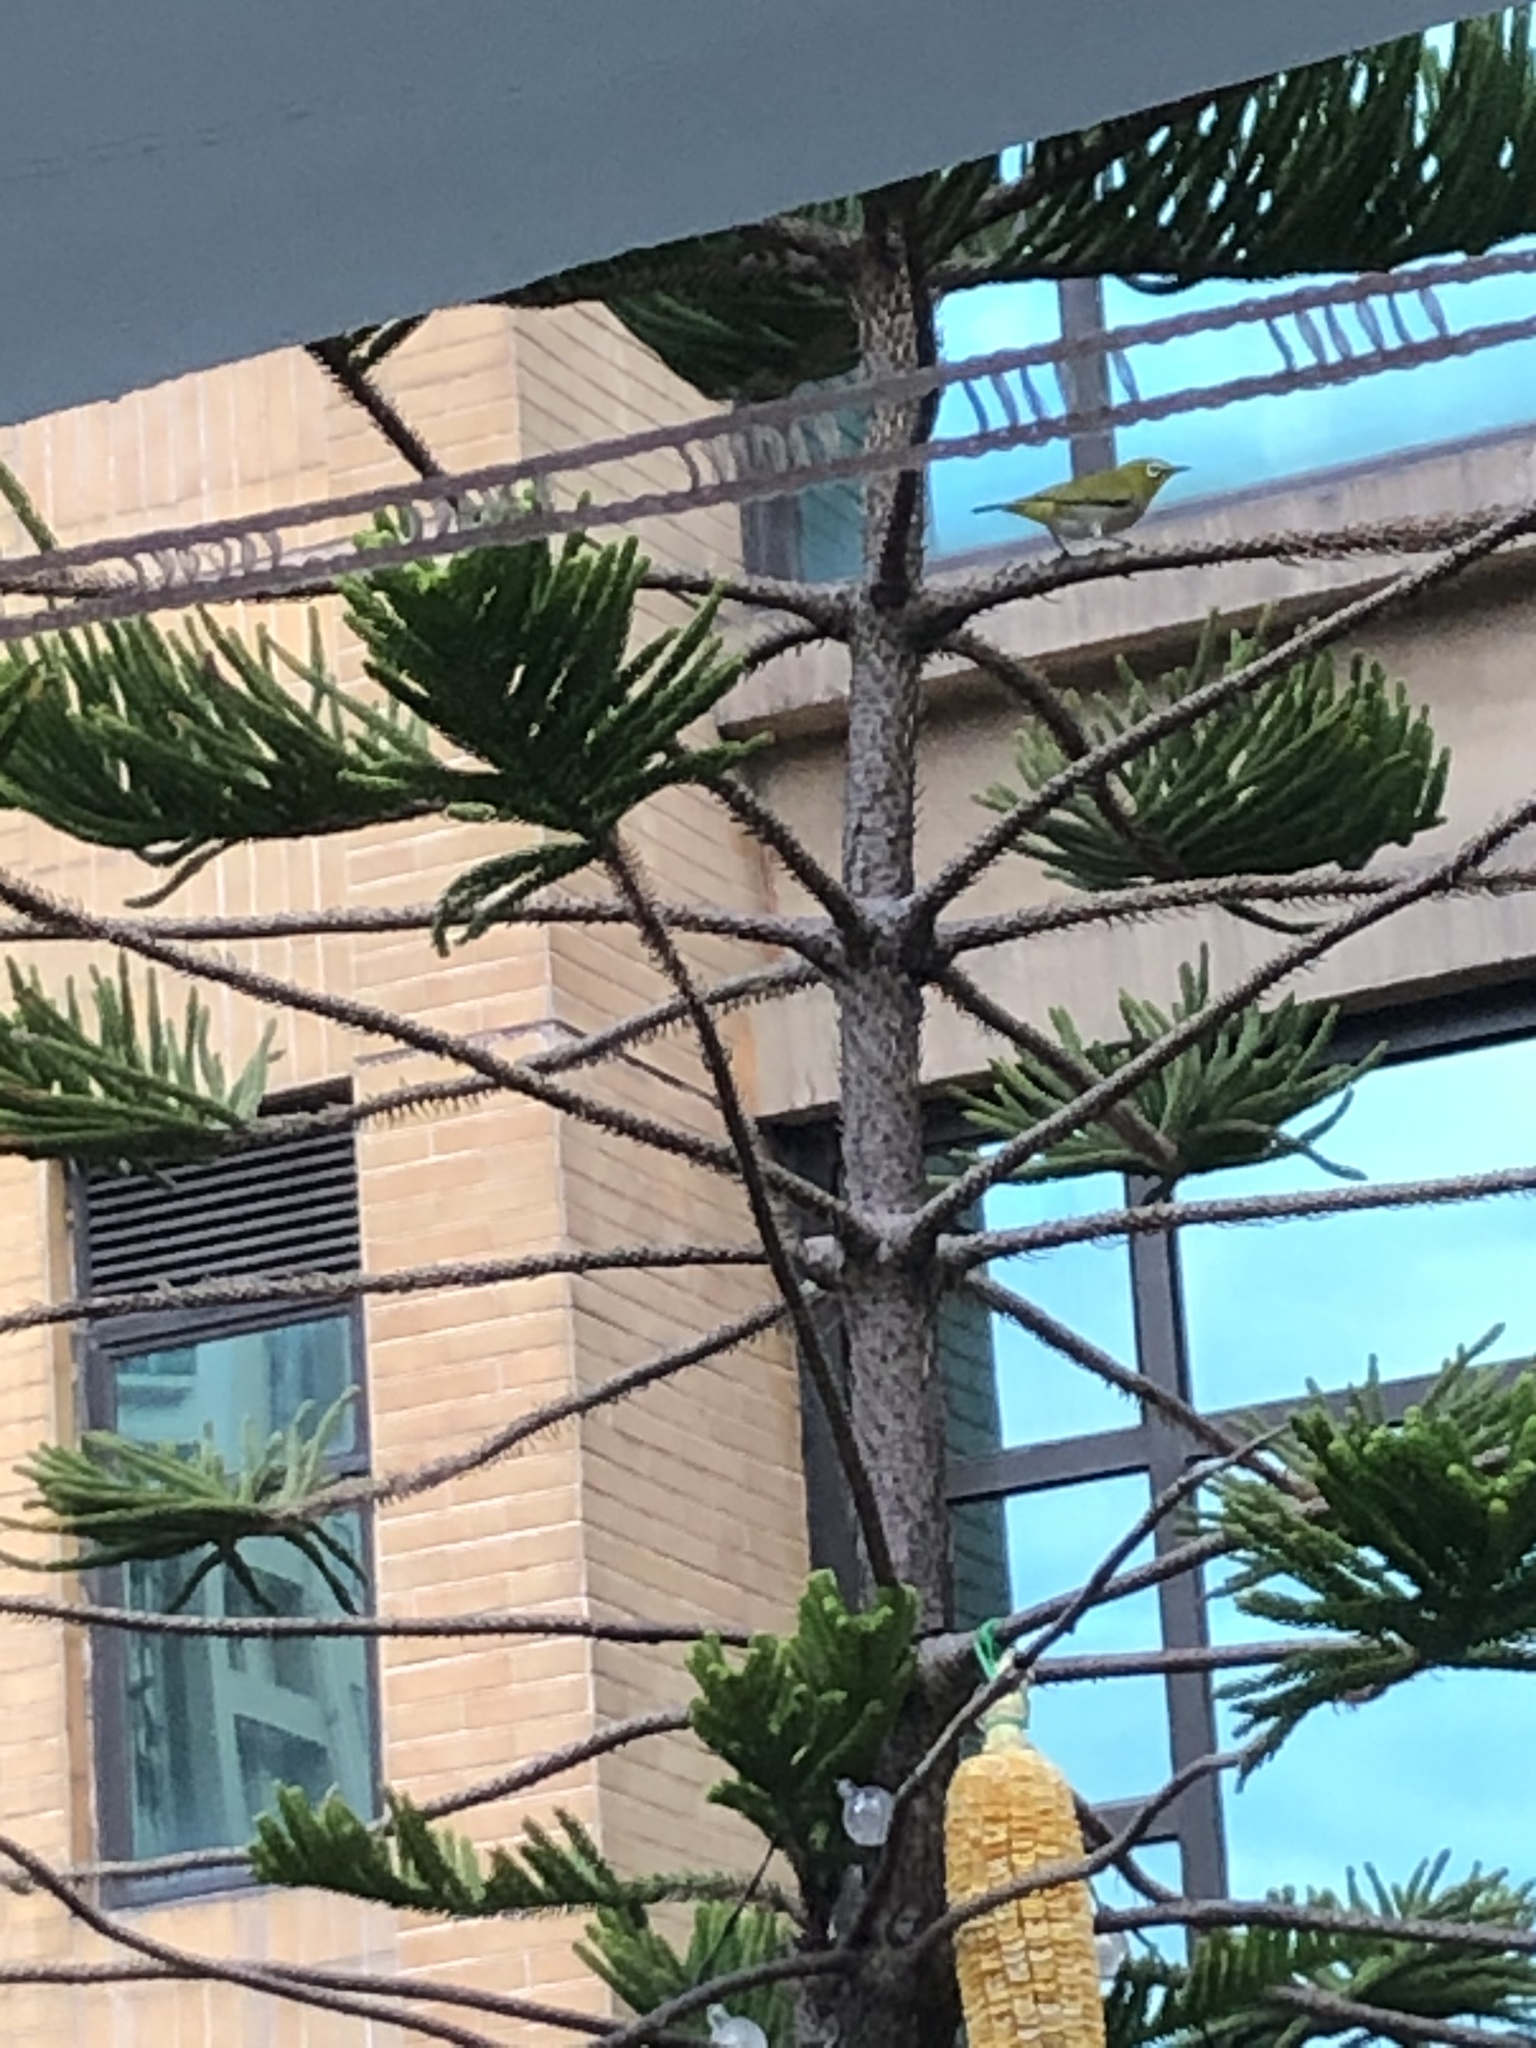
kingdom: Animalia
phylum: Chordata
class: Aves
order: Passeriformes
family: Zosteropidae
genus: Zosterops
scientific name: Zosterops simplex
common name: Swinhoe's white-eye
